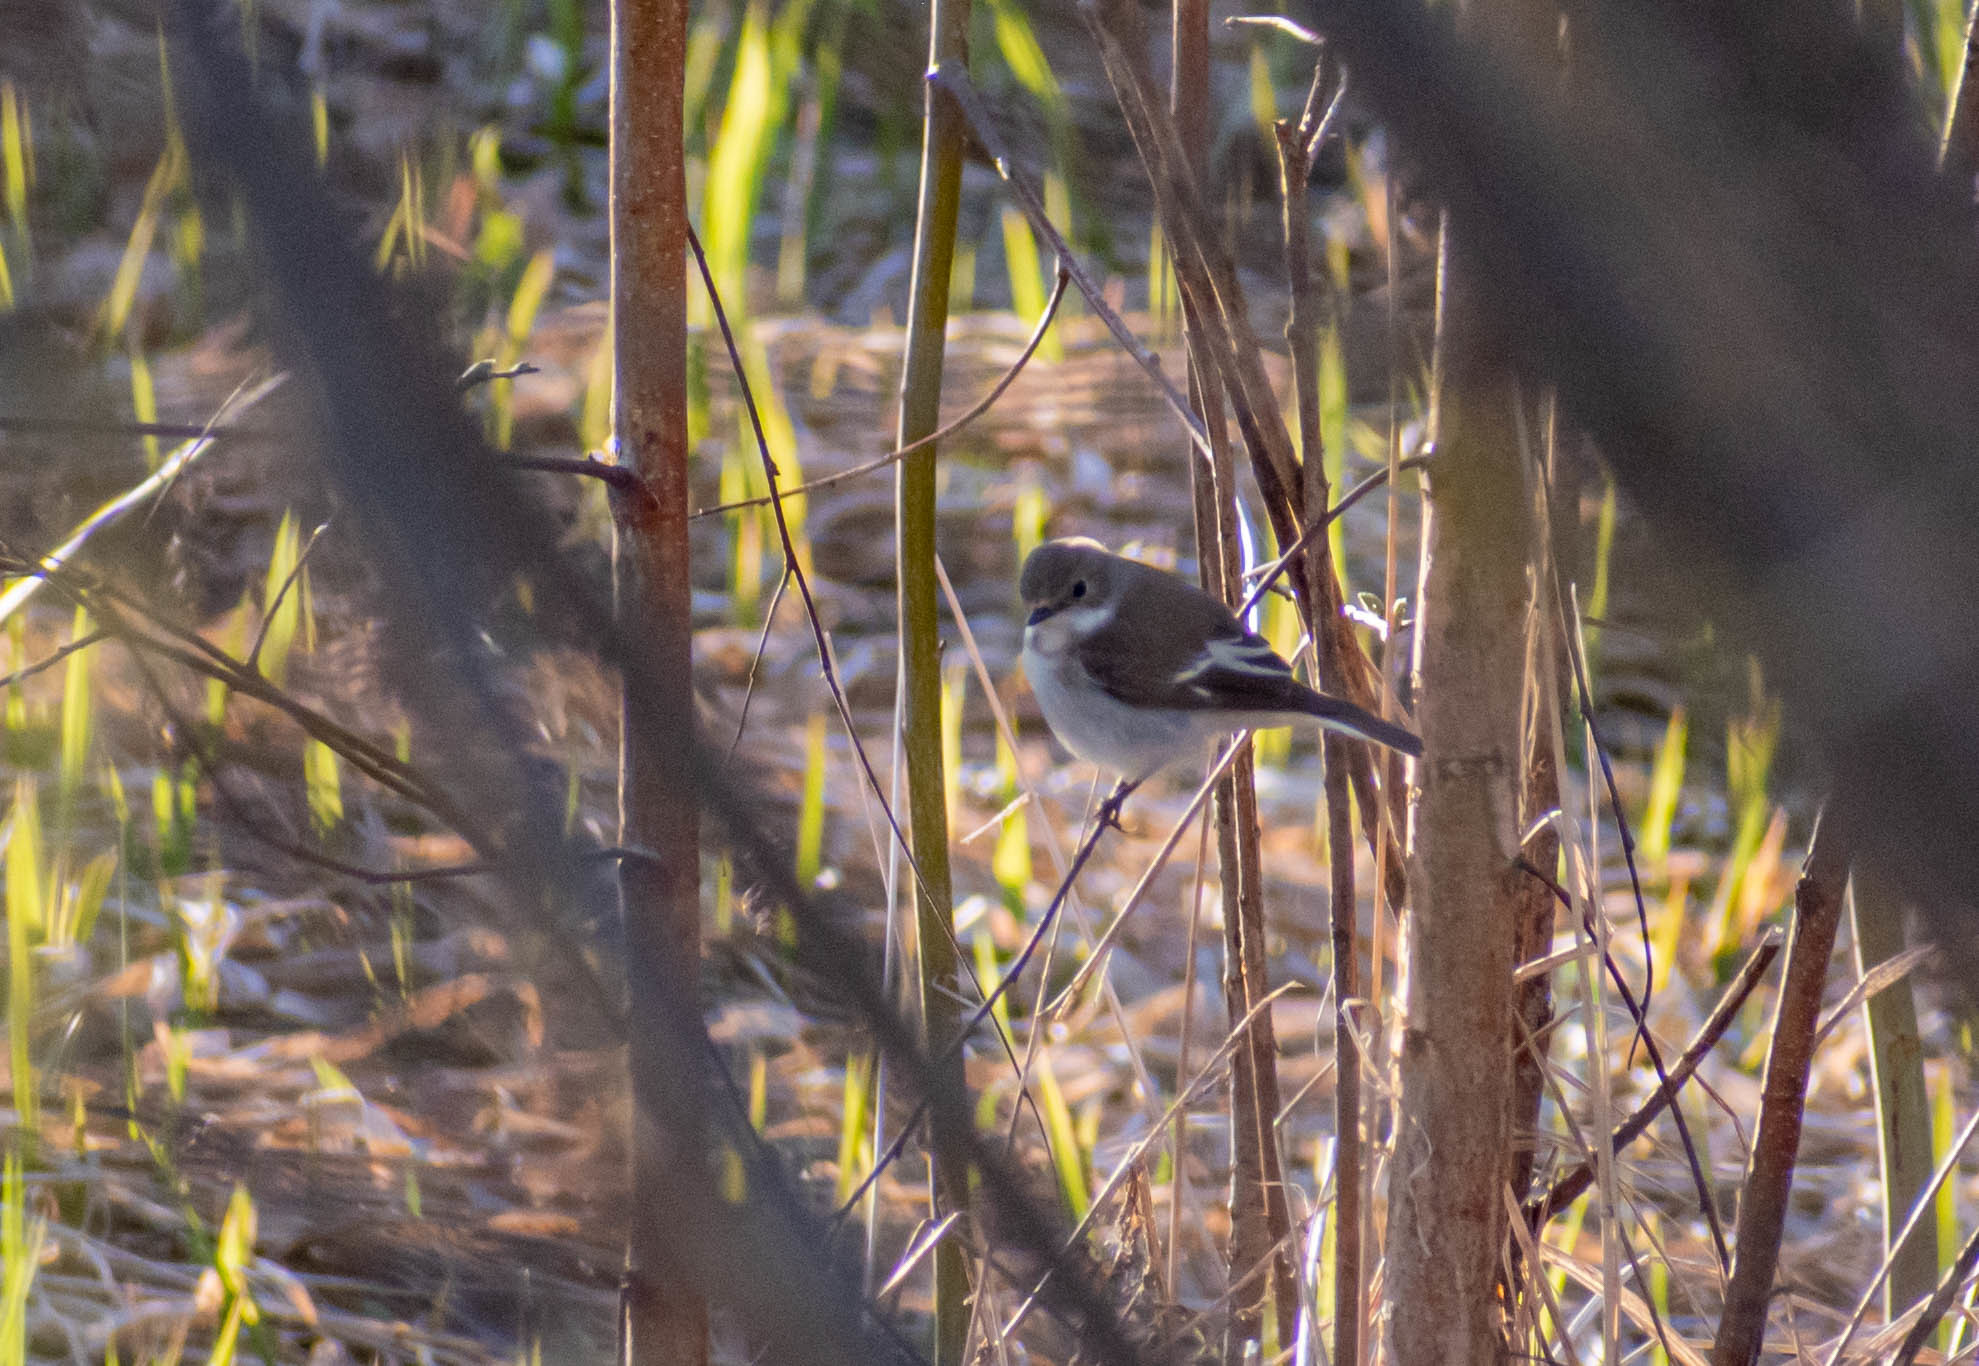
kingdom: Animalia
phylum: Chordata
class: Aves
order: Passeriformes
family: Muscicapidae
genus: Ficedula
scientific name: Ficedula hypoleuca
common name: European pied flycatcher
